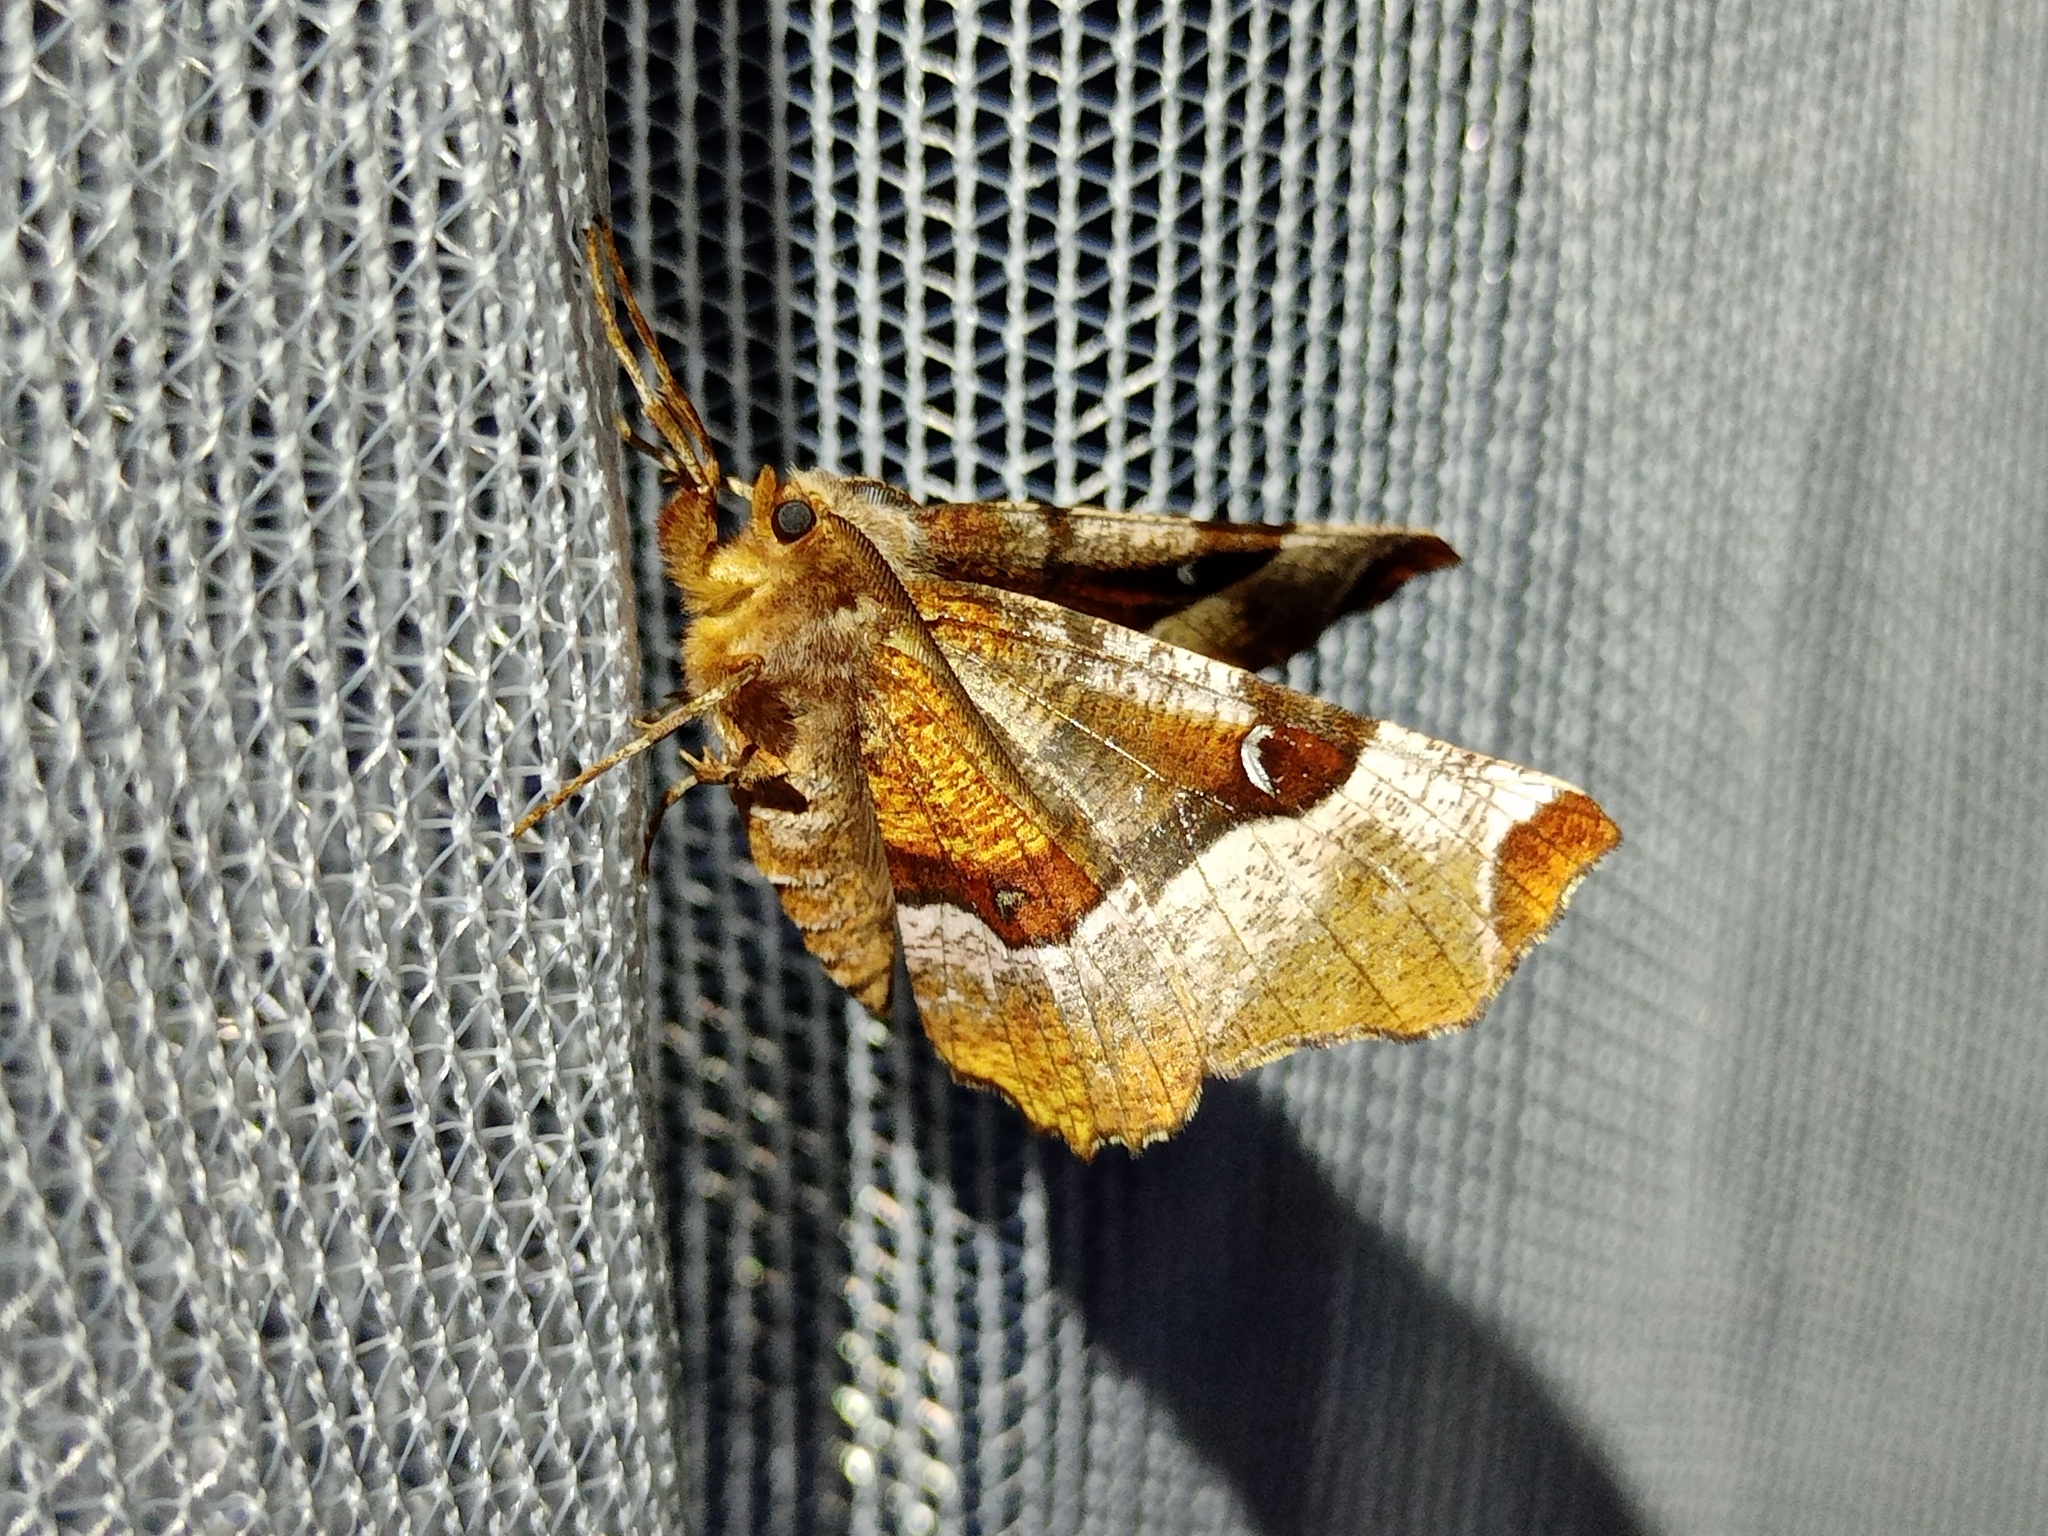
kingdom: Animalia
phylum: Arthropoda
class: Insecta
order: Lepidoptera
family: Geometridae
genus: Selenia
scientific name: Selenia tetralunaria
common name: Purple thorn
